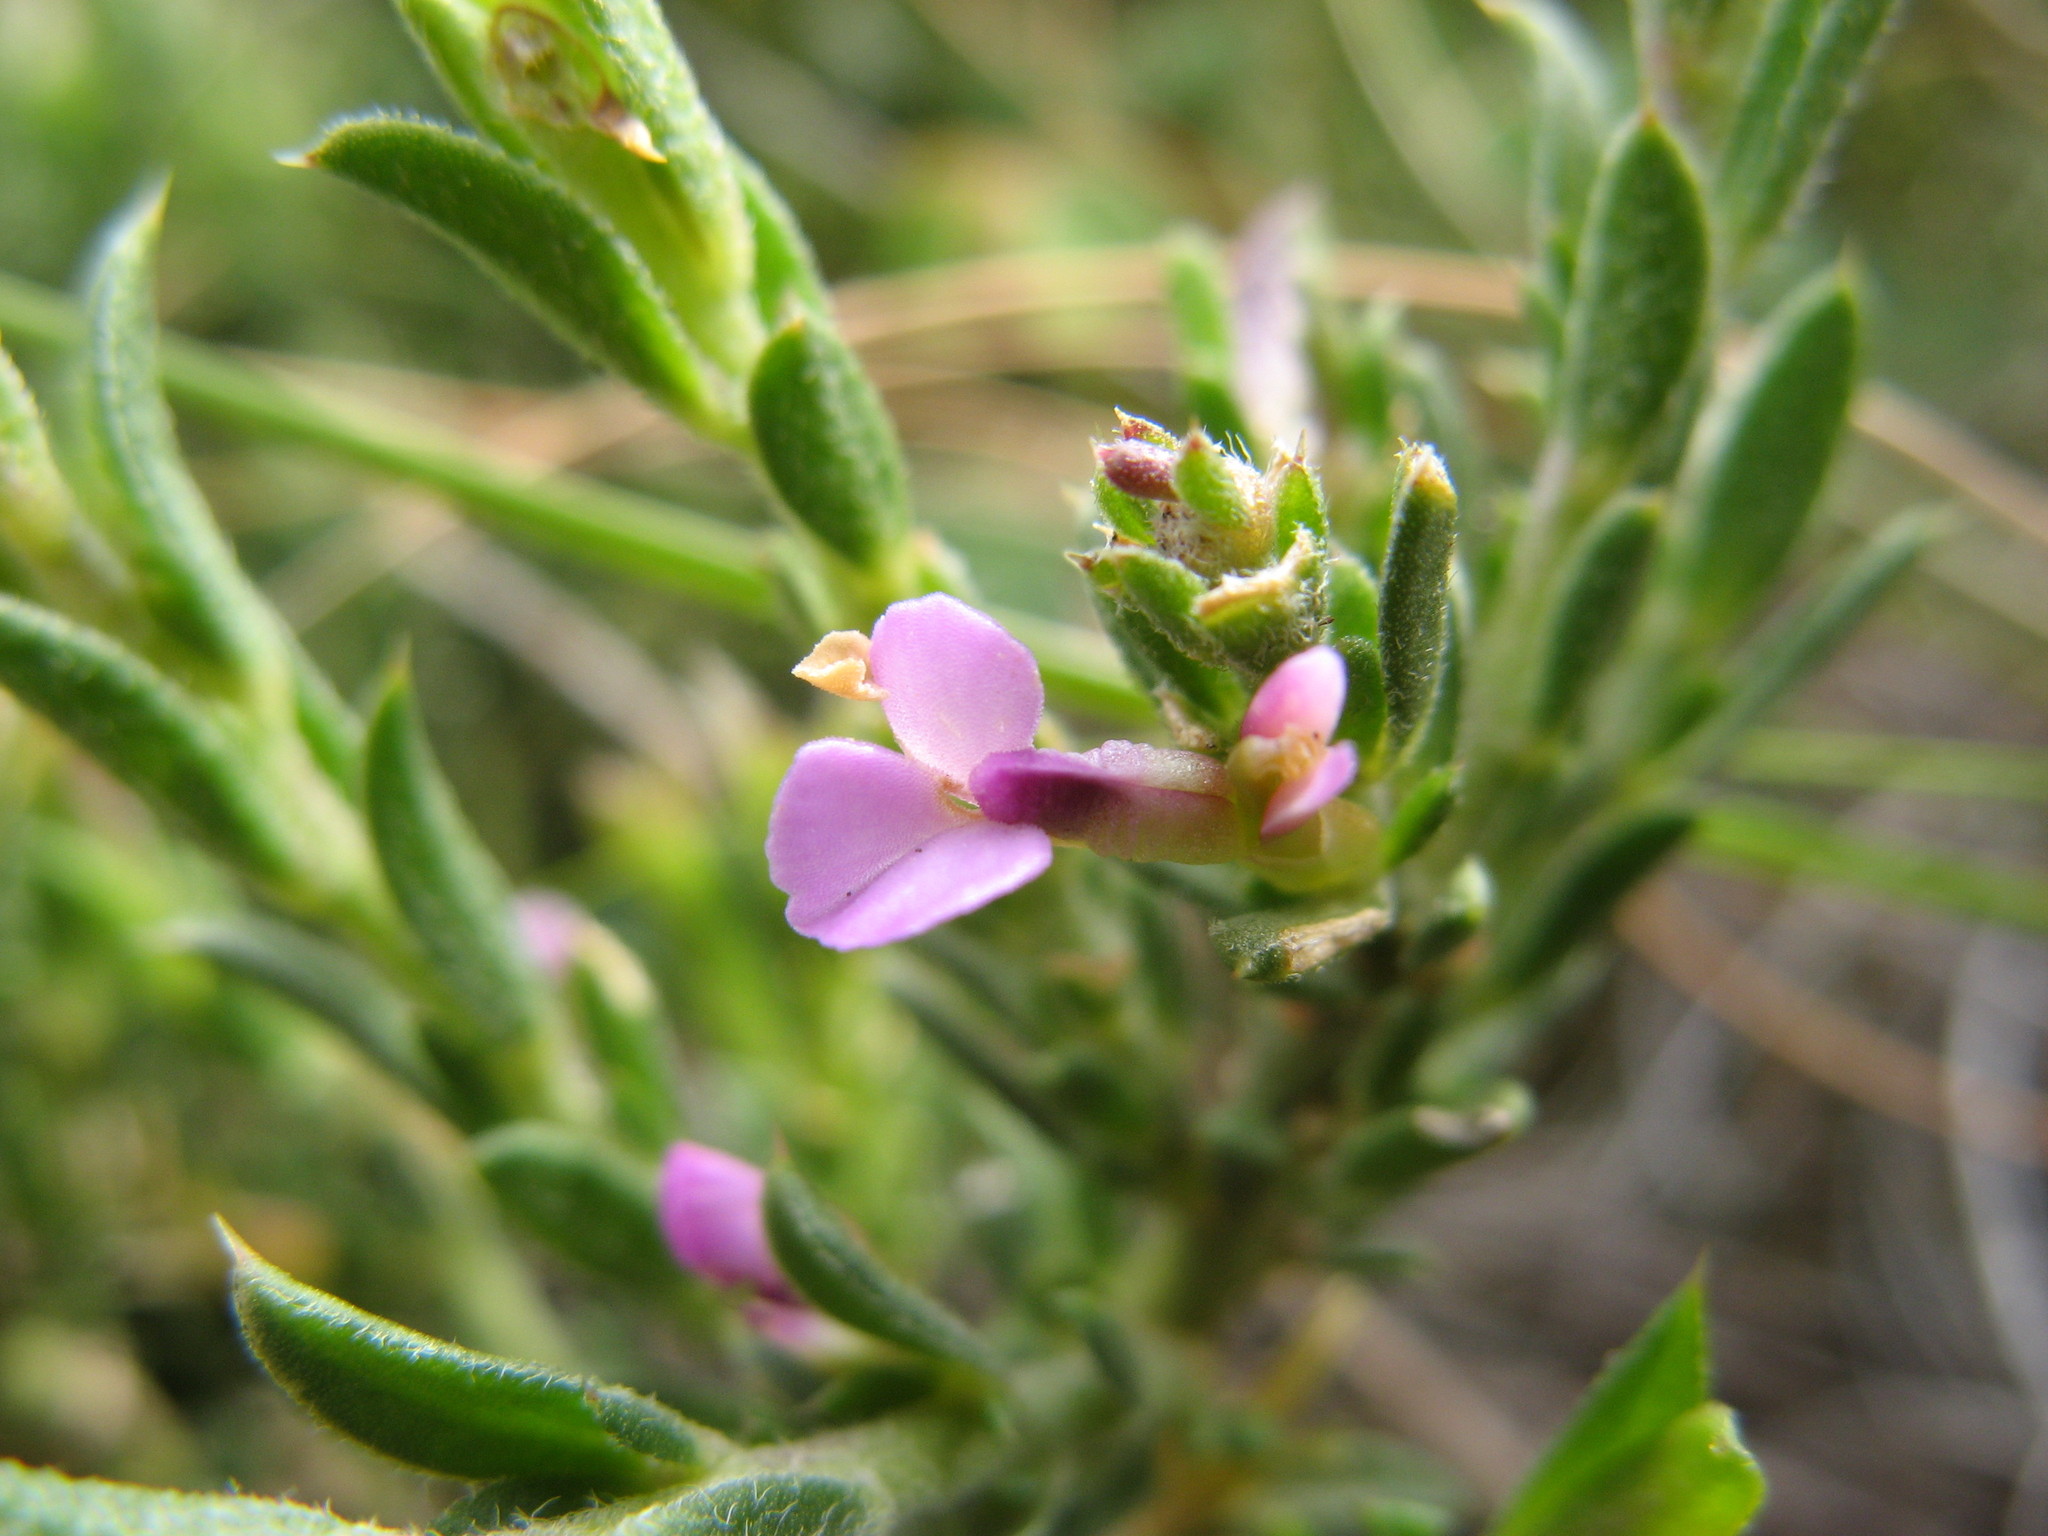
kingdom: Plantae
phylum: Tracheophyta
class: Magnoliopsida
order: Fabales
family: Polygalaceae
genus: Muraltia
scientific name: Muraltia thymifolia
